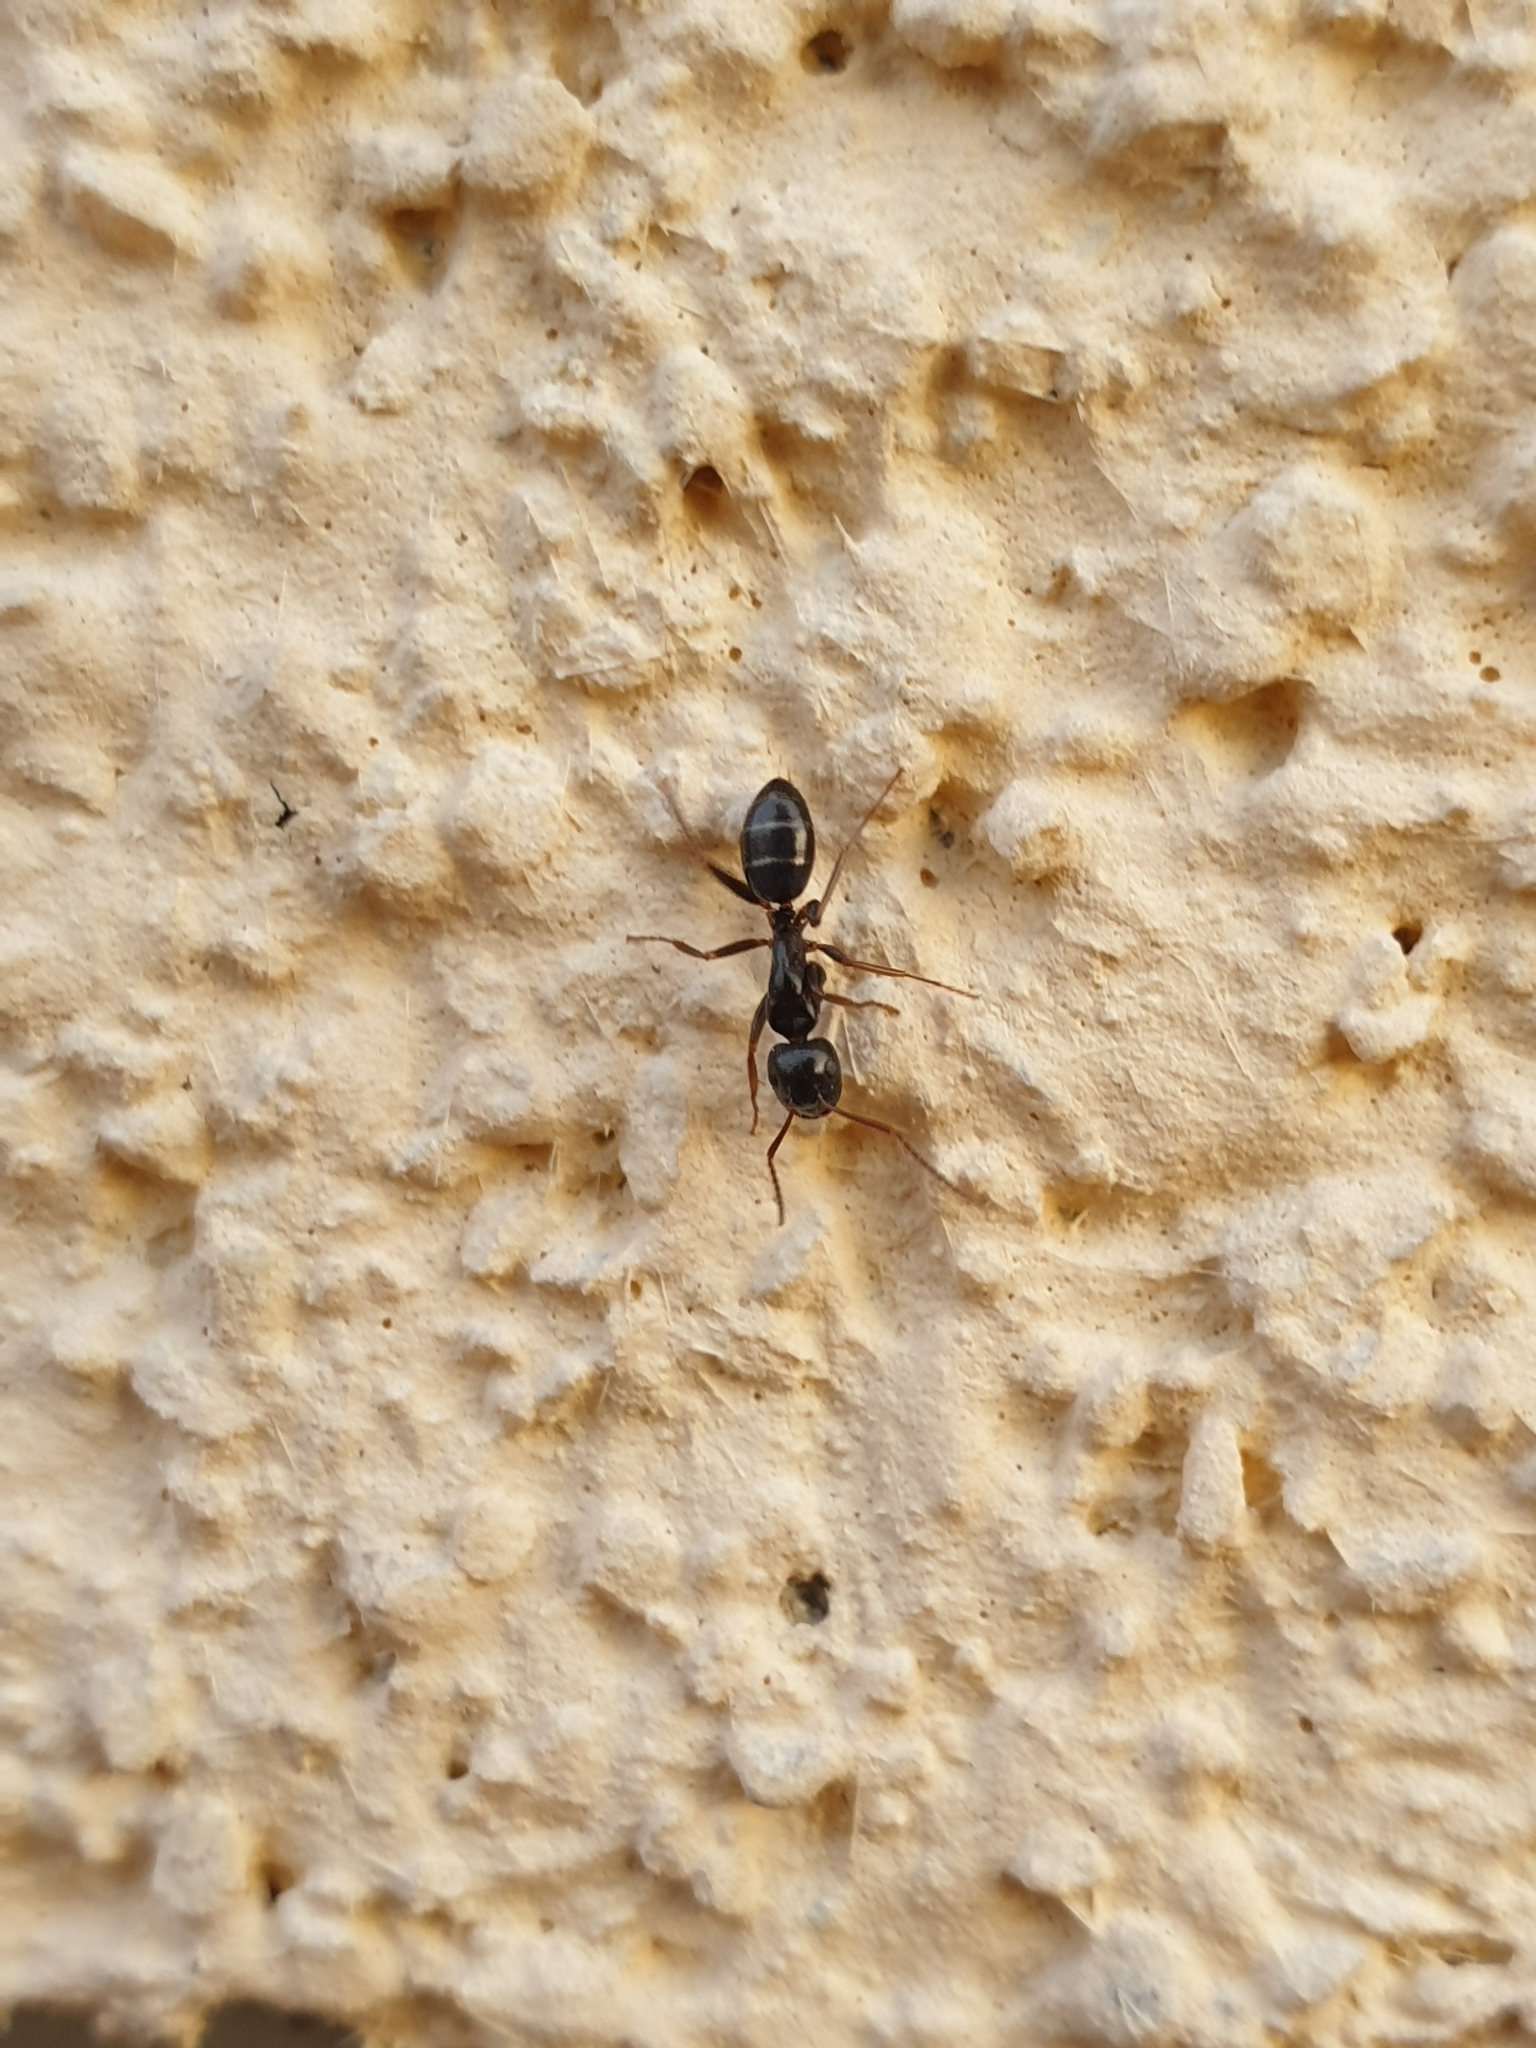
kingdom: Animalia
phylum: Arthropoda
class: Insecta
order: Hymenoptera
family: Formicidae
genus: Camponotus
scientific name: Camponotus fallax
